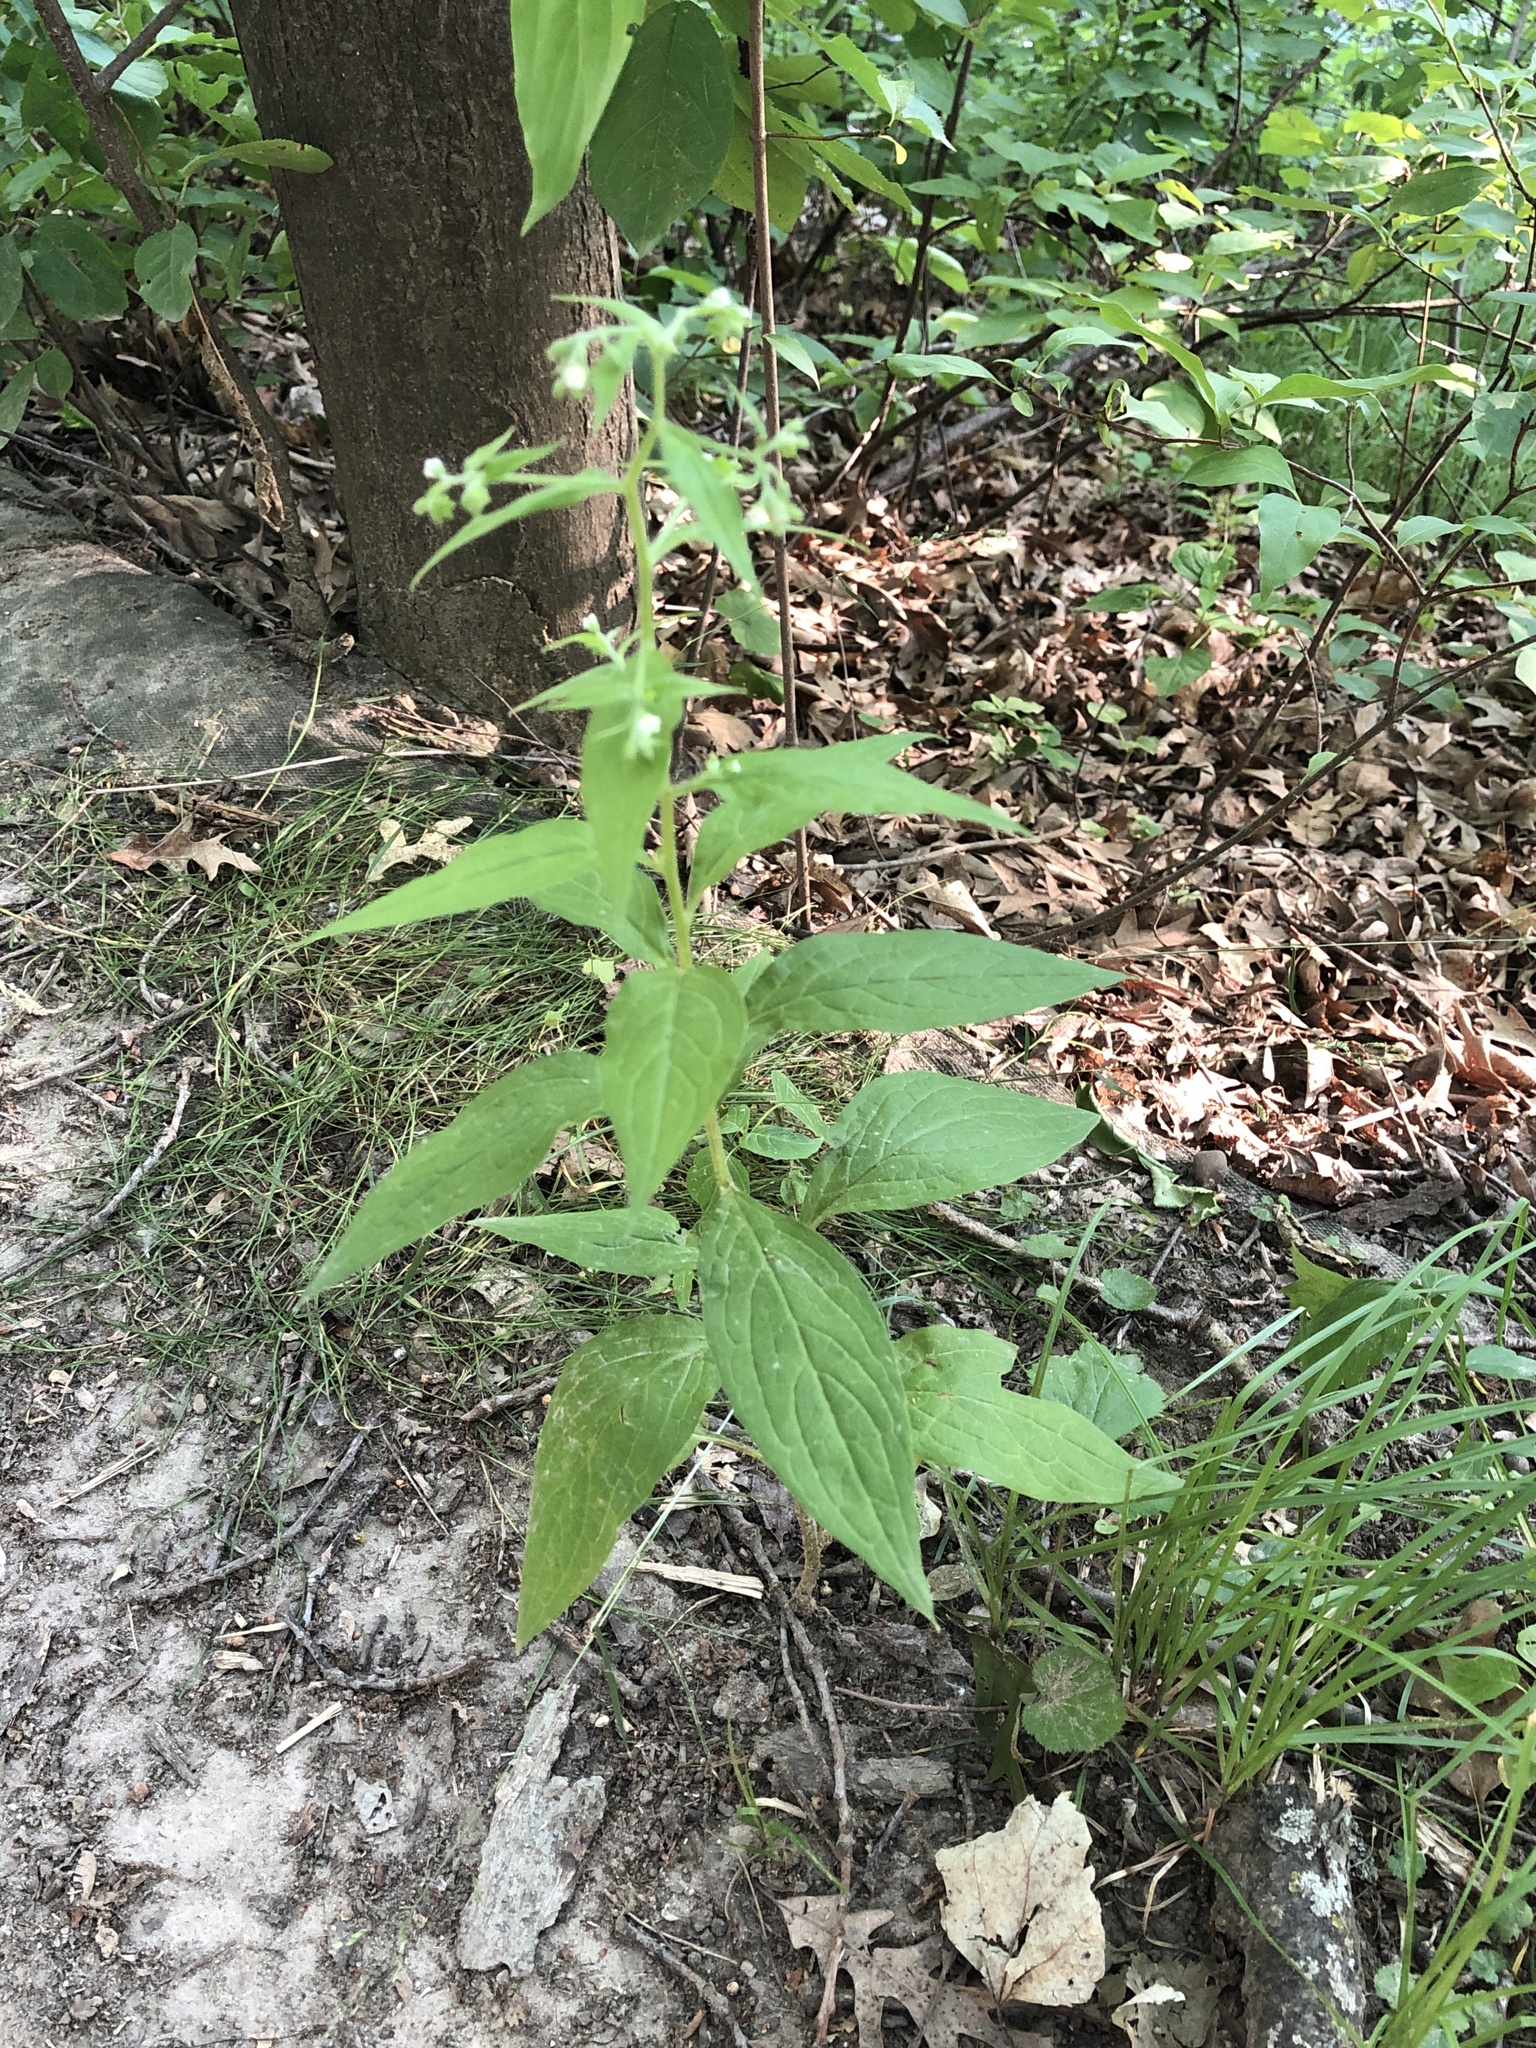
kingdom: Plantae
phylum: Tracheophyta
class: Magnoliopsida
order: Boraginales
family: Boraginaceae
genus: Hackelia
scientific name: Hackelia virginiana
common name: Beggar's-lice
